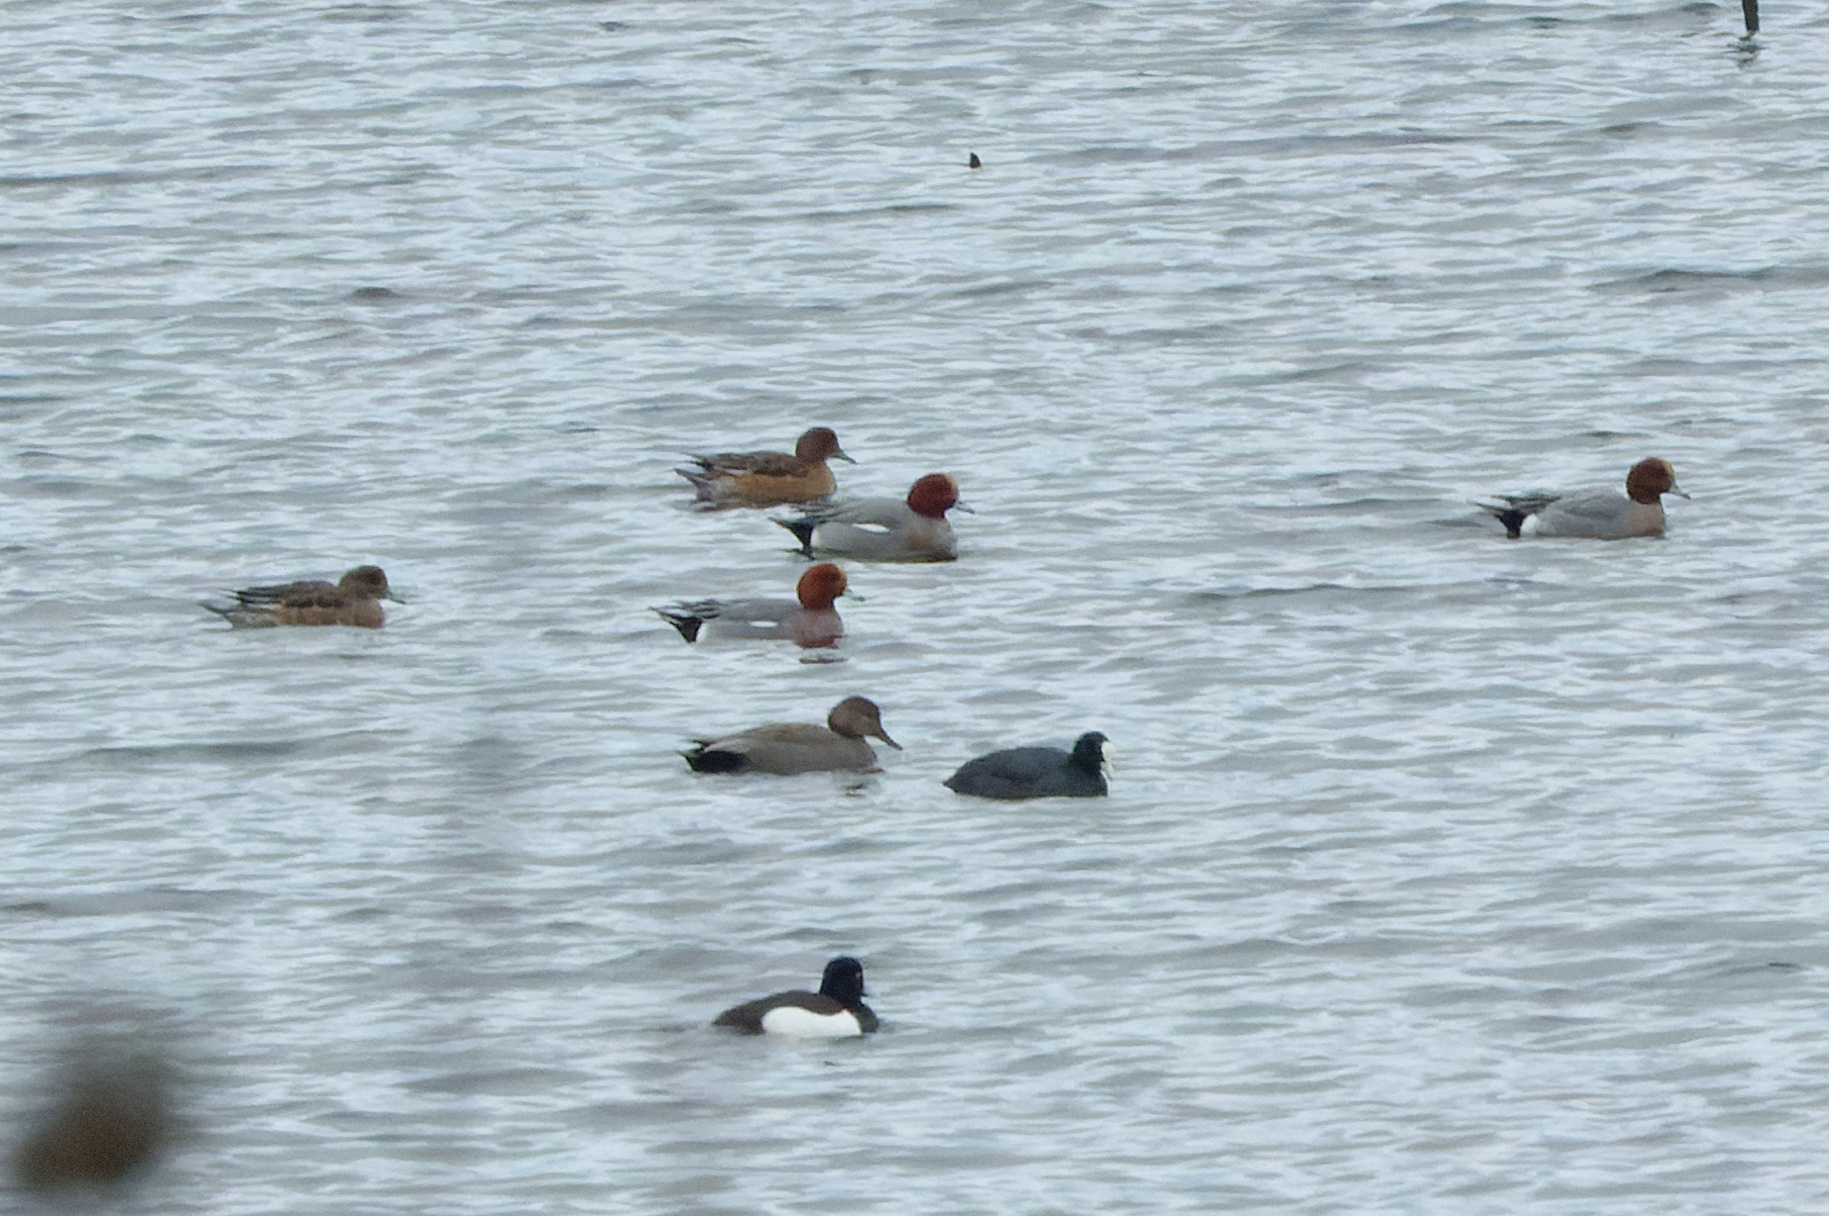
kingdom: Animalia
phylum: Chordata
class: Aves
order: Anseriformes
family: Anatidae
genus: Mareca
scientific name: Mareca penelope
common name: Eurasian wigeon
